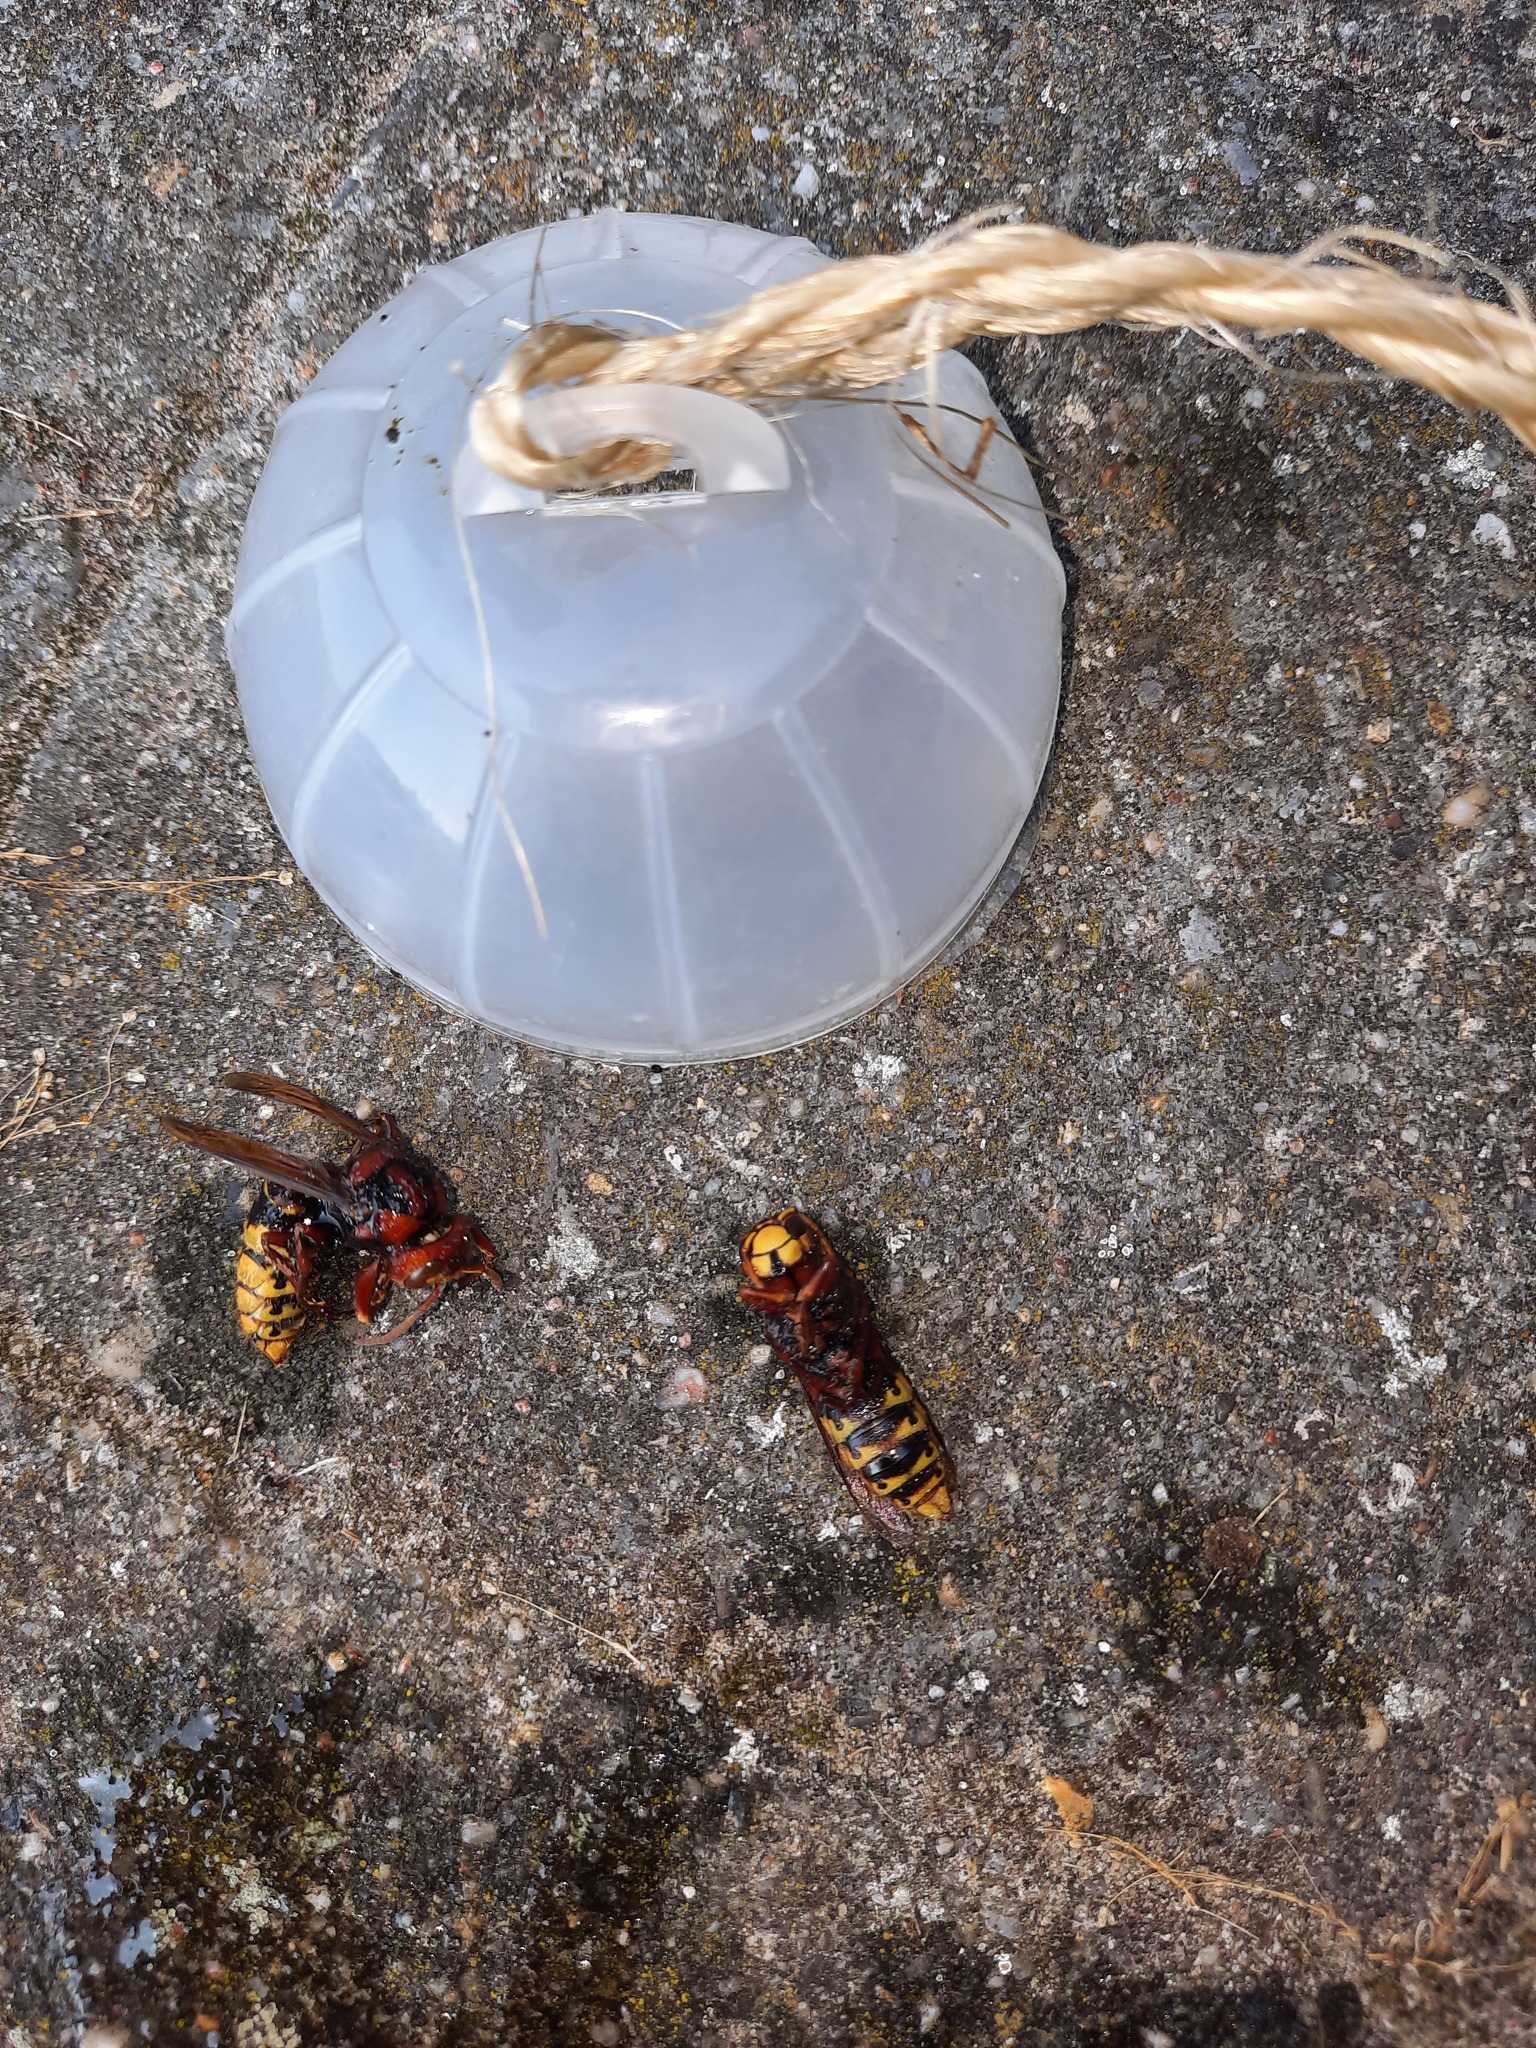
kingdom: Animalia
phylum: Arthropoda
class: Insecta
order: Hymenoptera
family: Vespidae
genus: Vespa
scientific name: Vespa crabro
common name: Hornet
